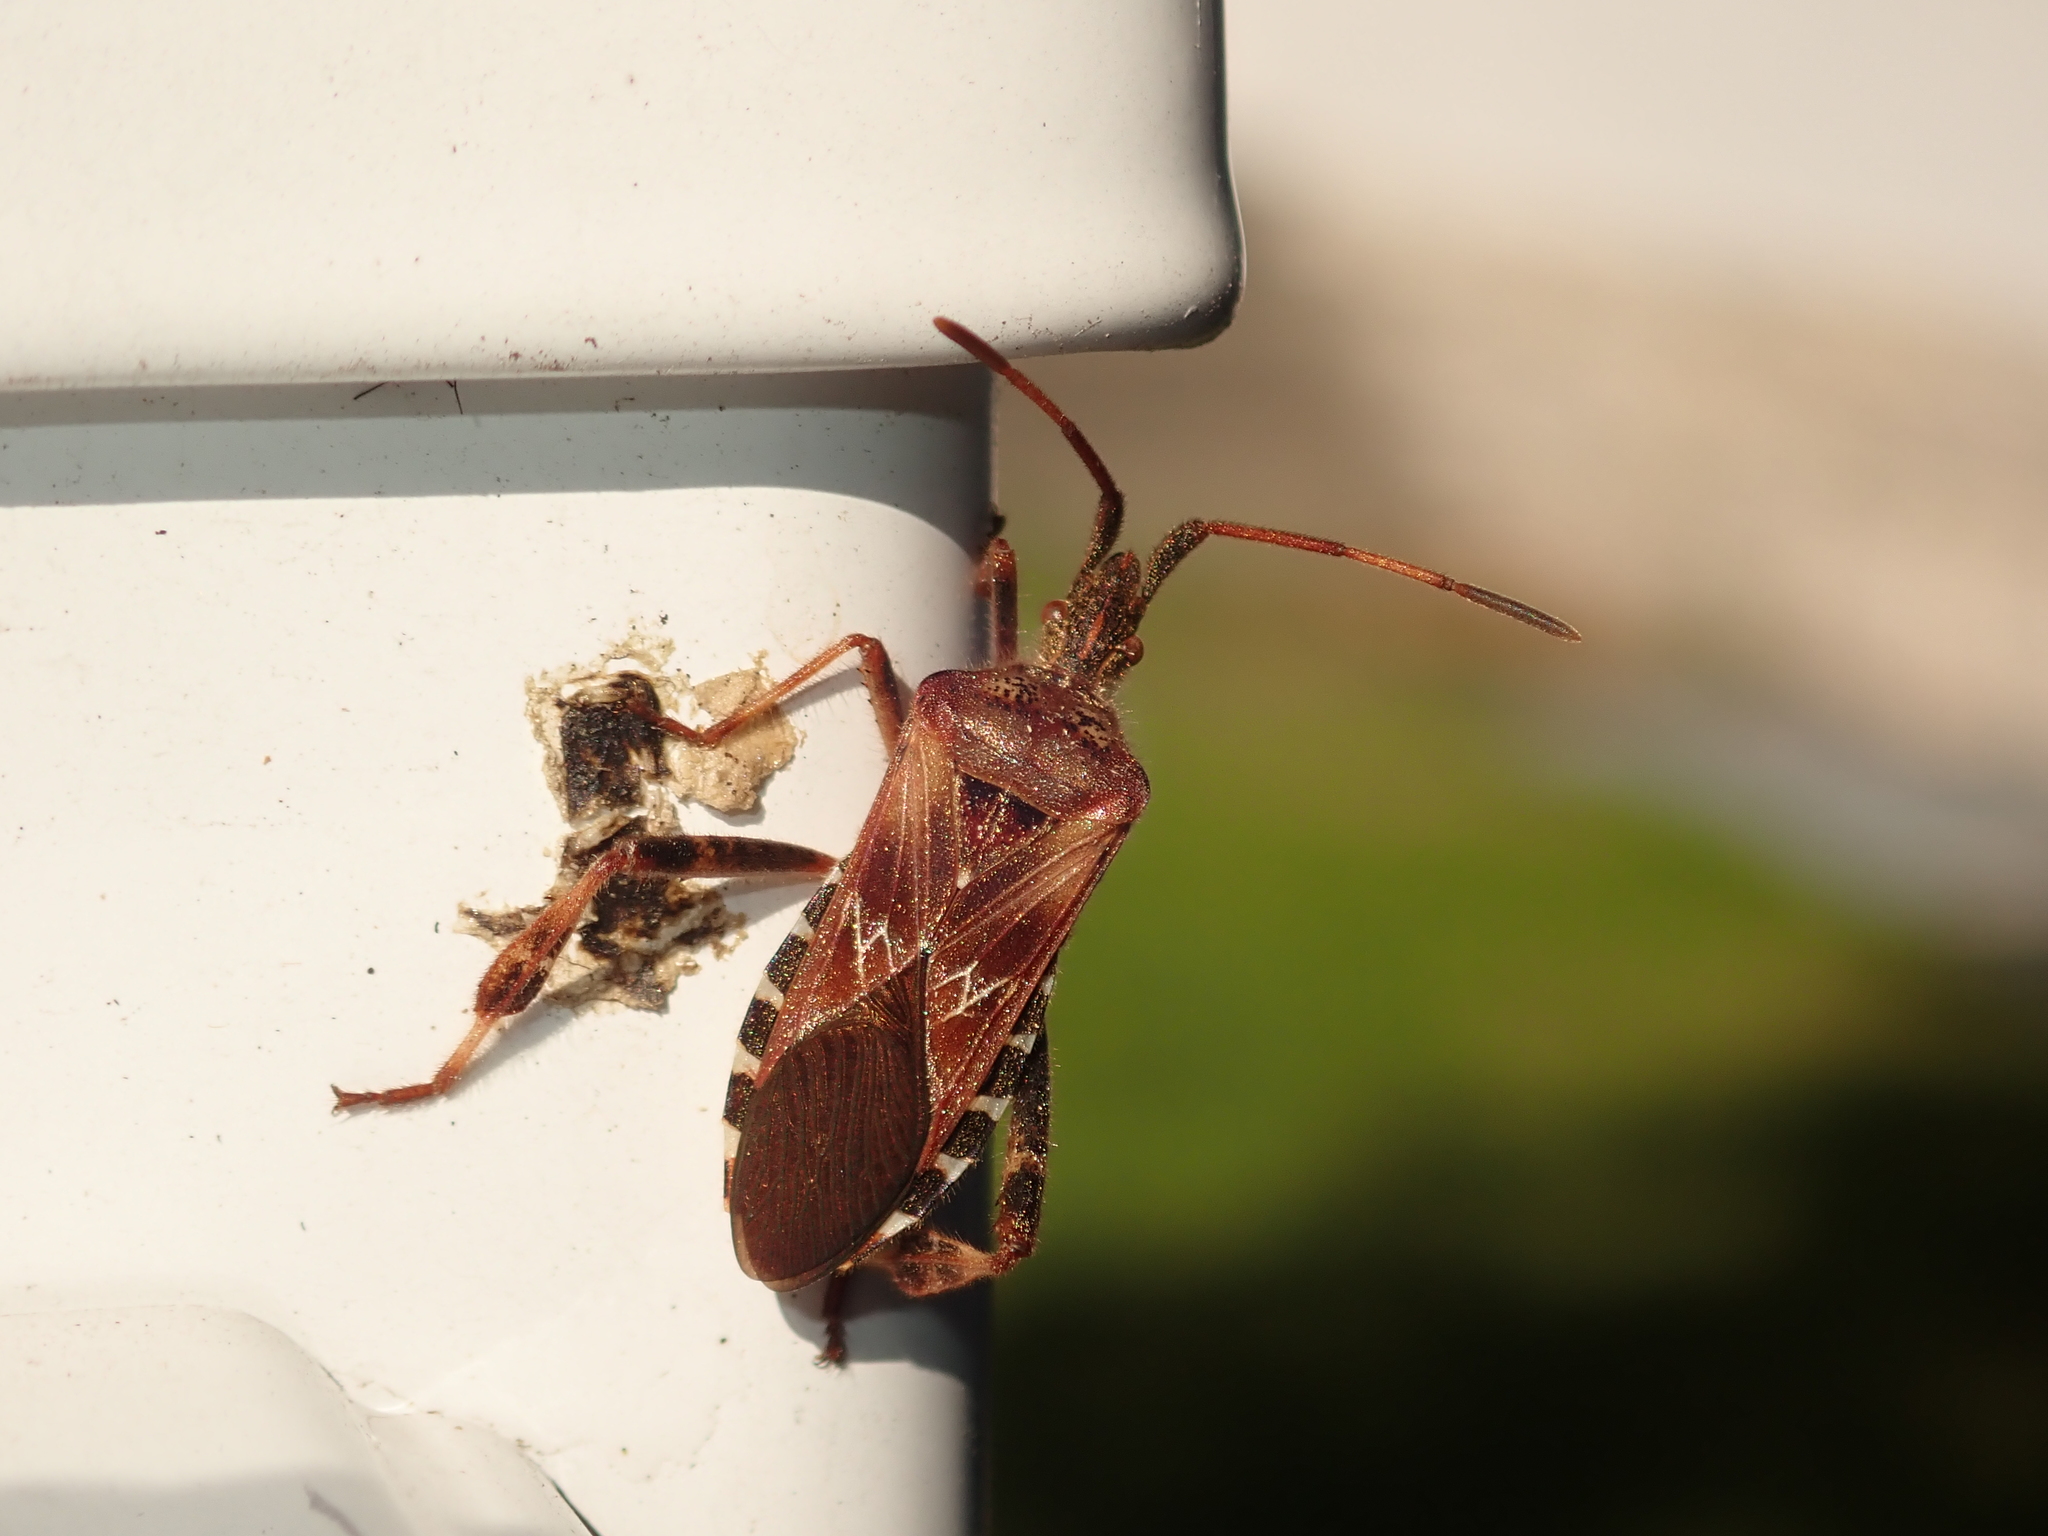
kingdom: Animalia
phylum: Arthropoda
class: Insecta
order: Hemiptera
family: Coreidae
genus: Leptoglossus
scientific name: Leptoglossus occidentalis
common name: Western conifer-seed bug
